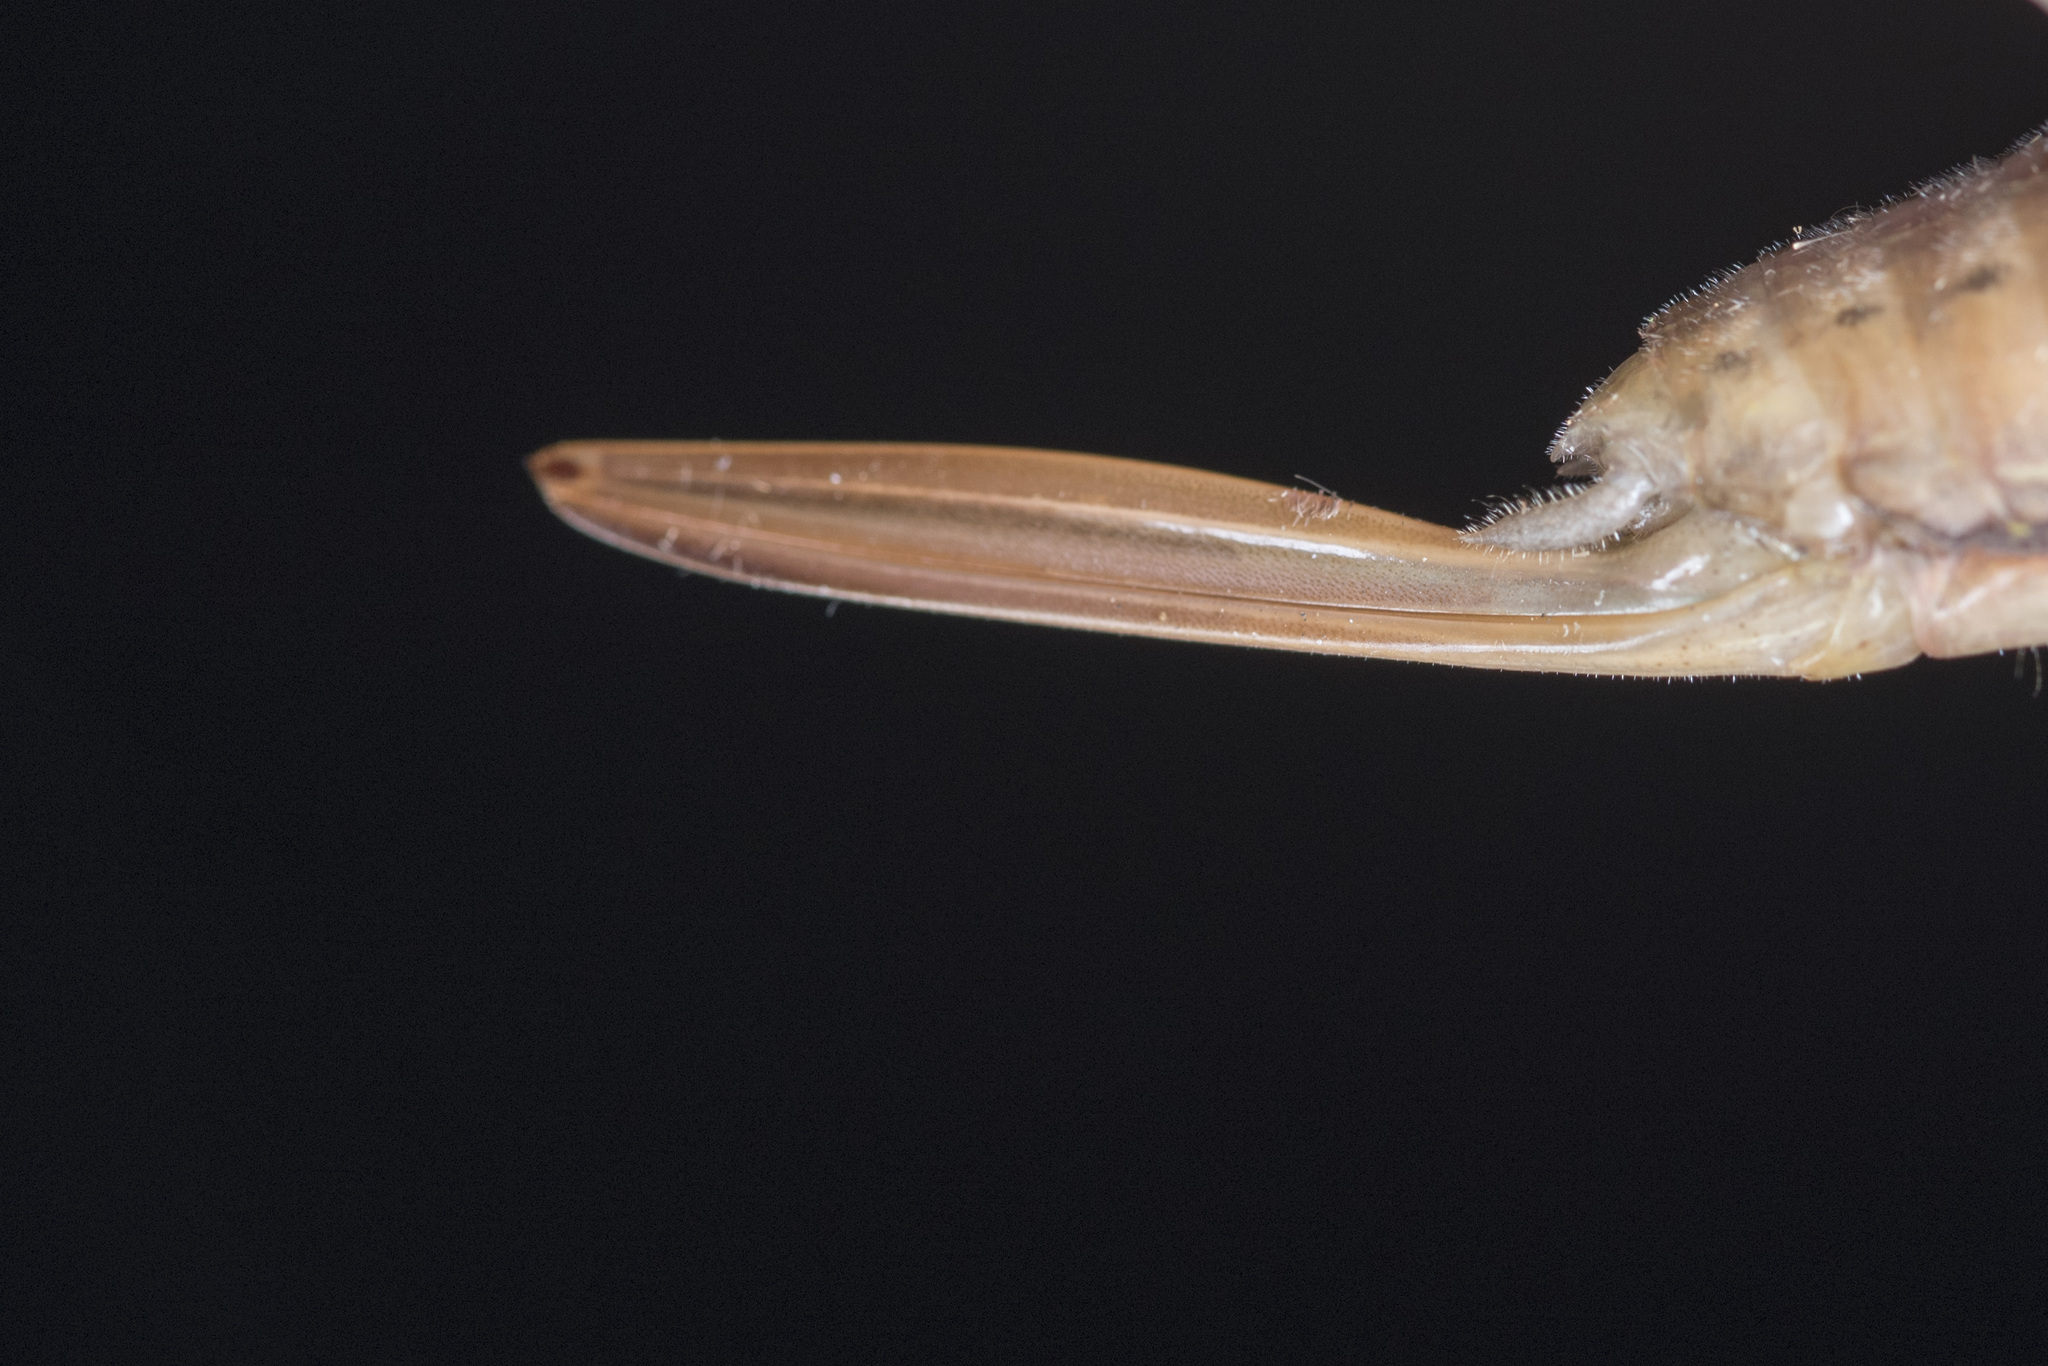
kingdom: Animalia
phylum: Arthropoda
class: Insecta
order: Orthoptera
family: Tettigoniidae
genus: Xestophrys
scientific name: Xestophrys javanicus
